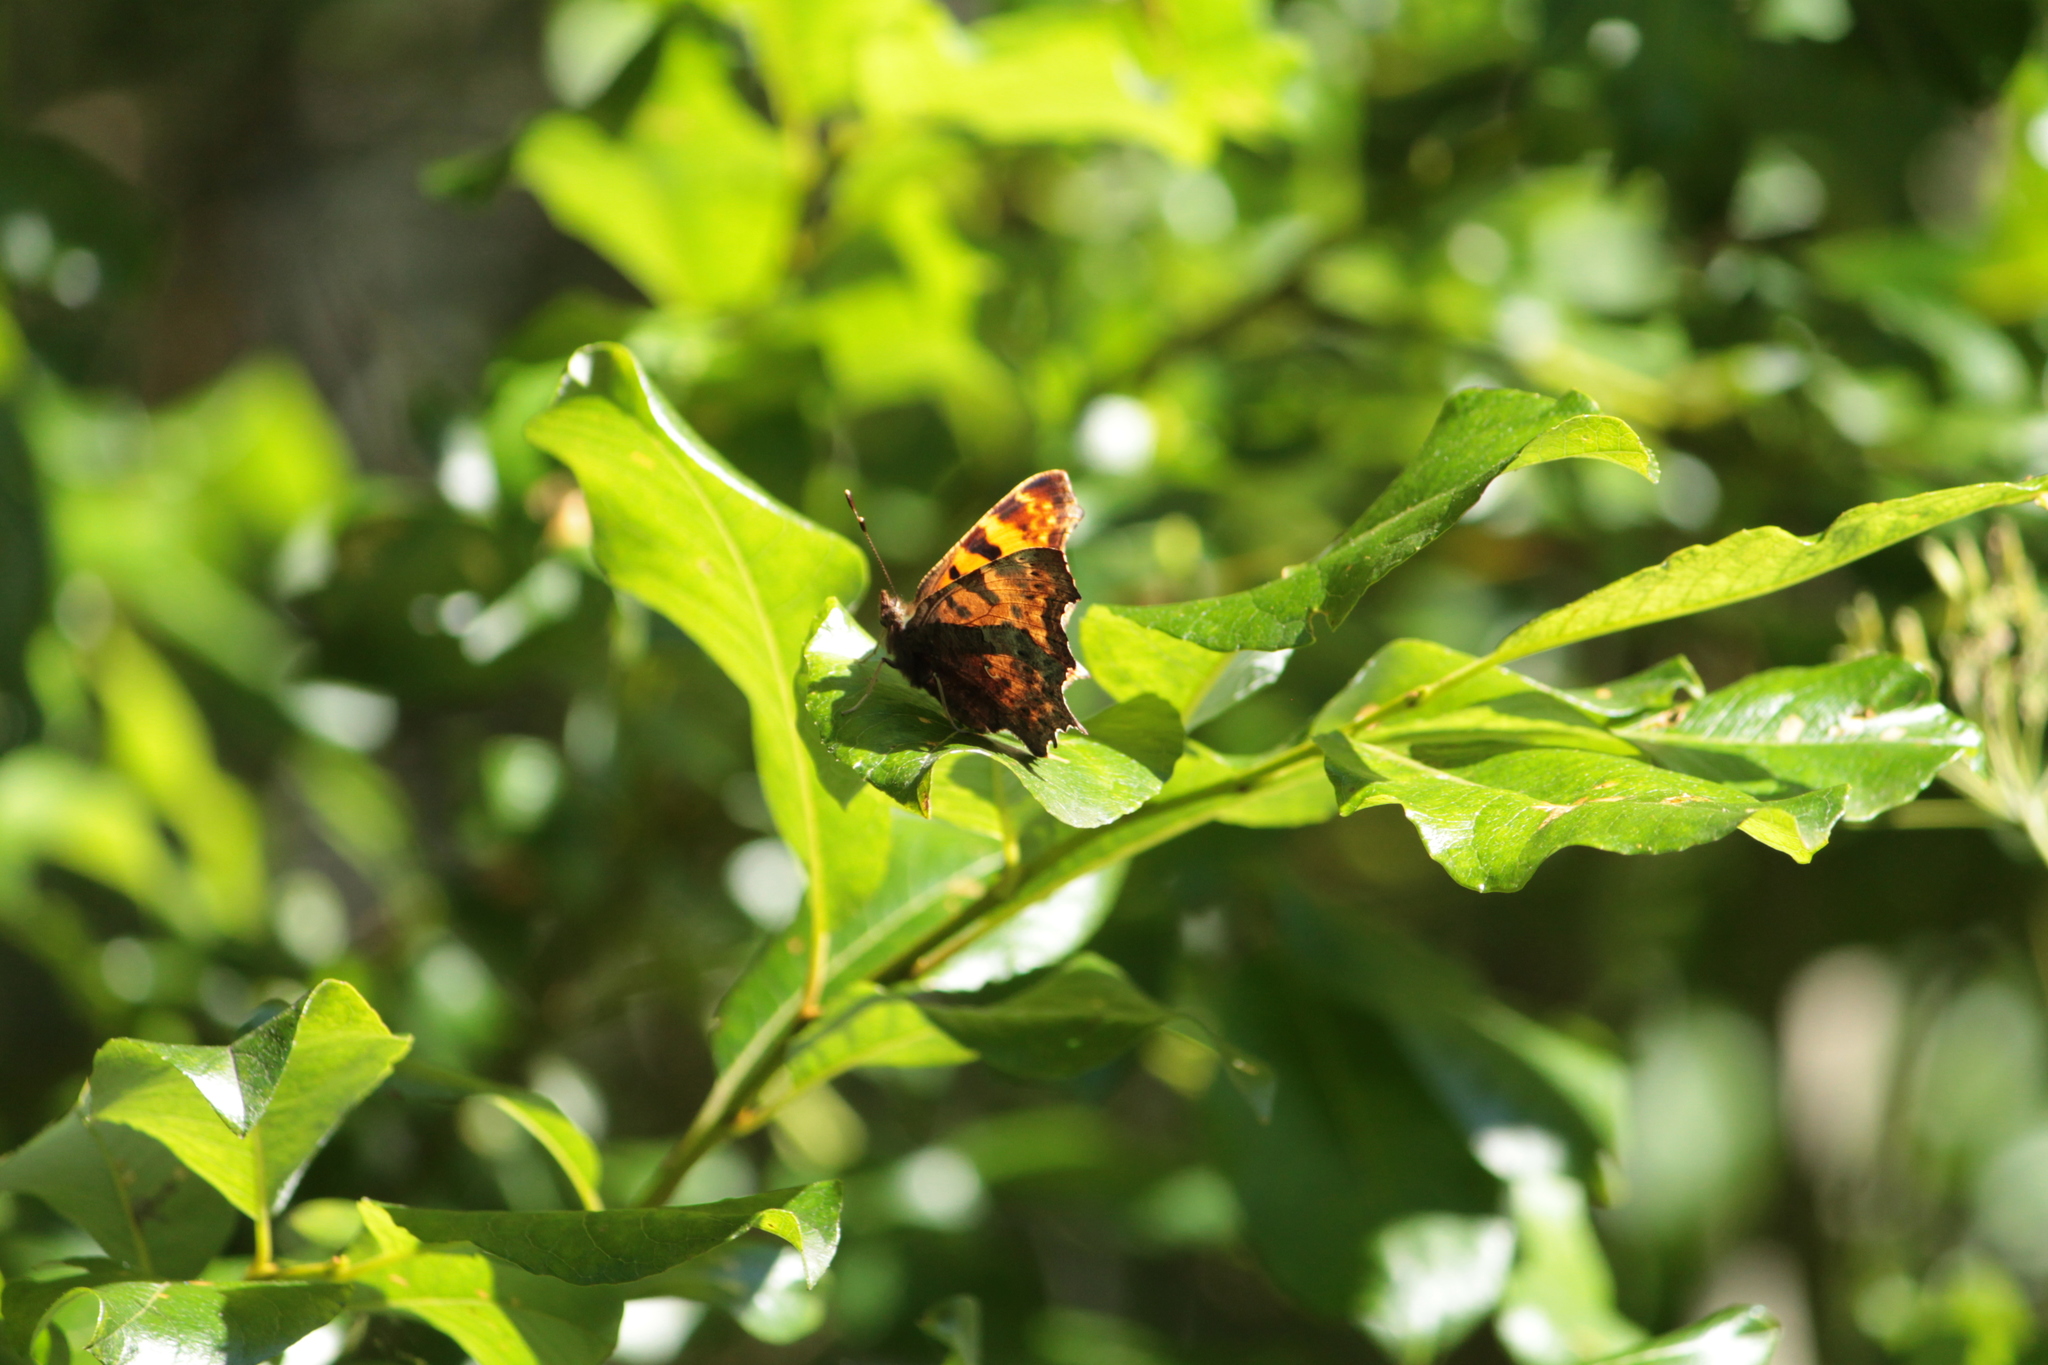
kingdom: Animalia
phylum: Arthropoda
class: Insecta
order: Lepidoptera
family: Nymphalidae
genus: Polygonia
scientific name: Polygonia c-album
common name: Comma
